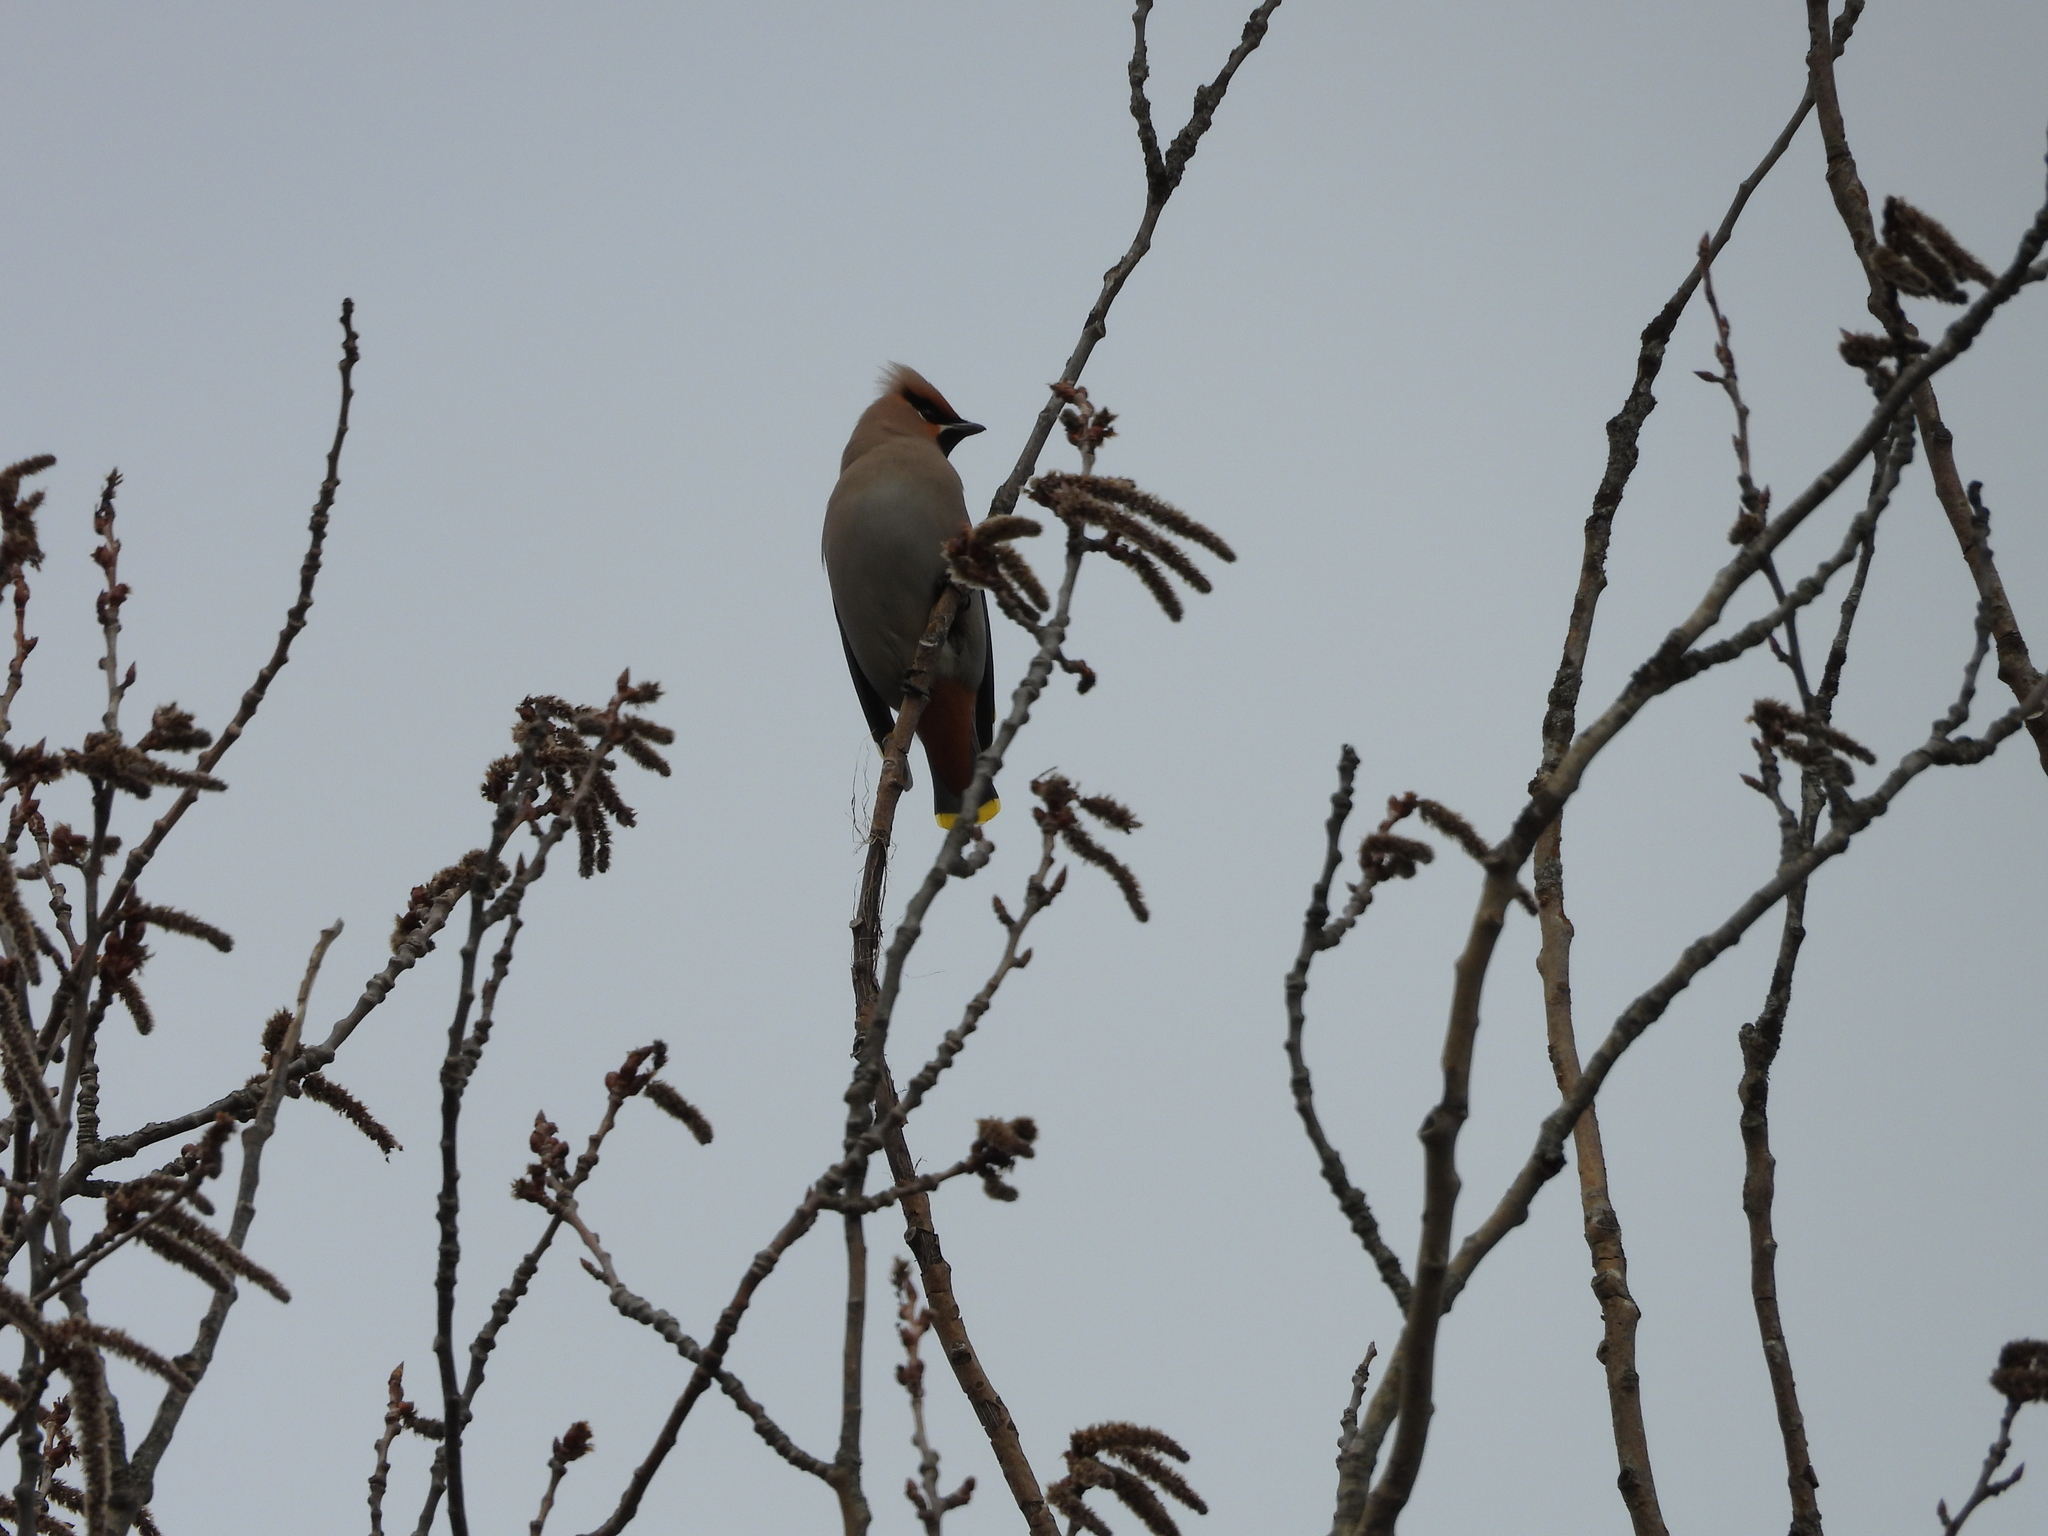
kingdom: Animalia
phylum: Chordata
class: Aves
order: Passeriformes
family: Bombycillidae
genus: Bombycilla
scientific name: Bombycilla garrulus
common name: Bohemian waxwing
